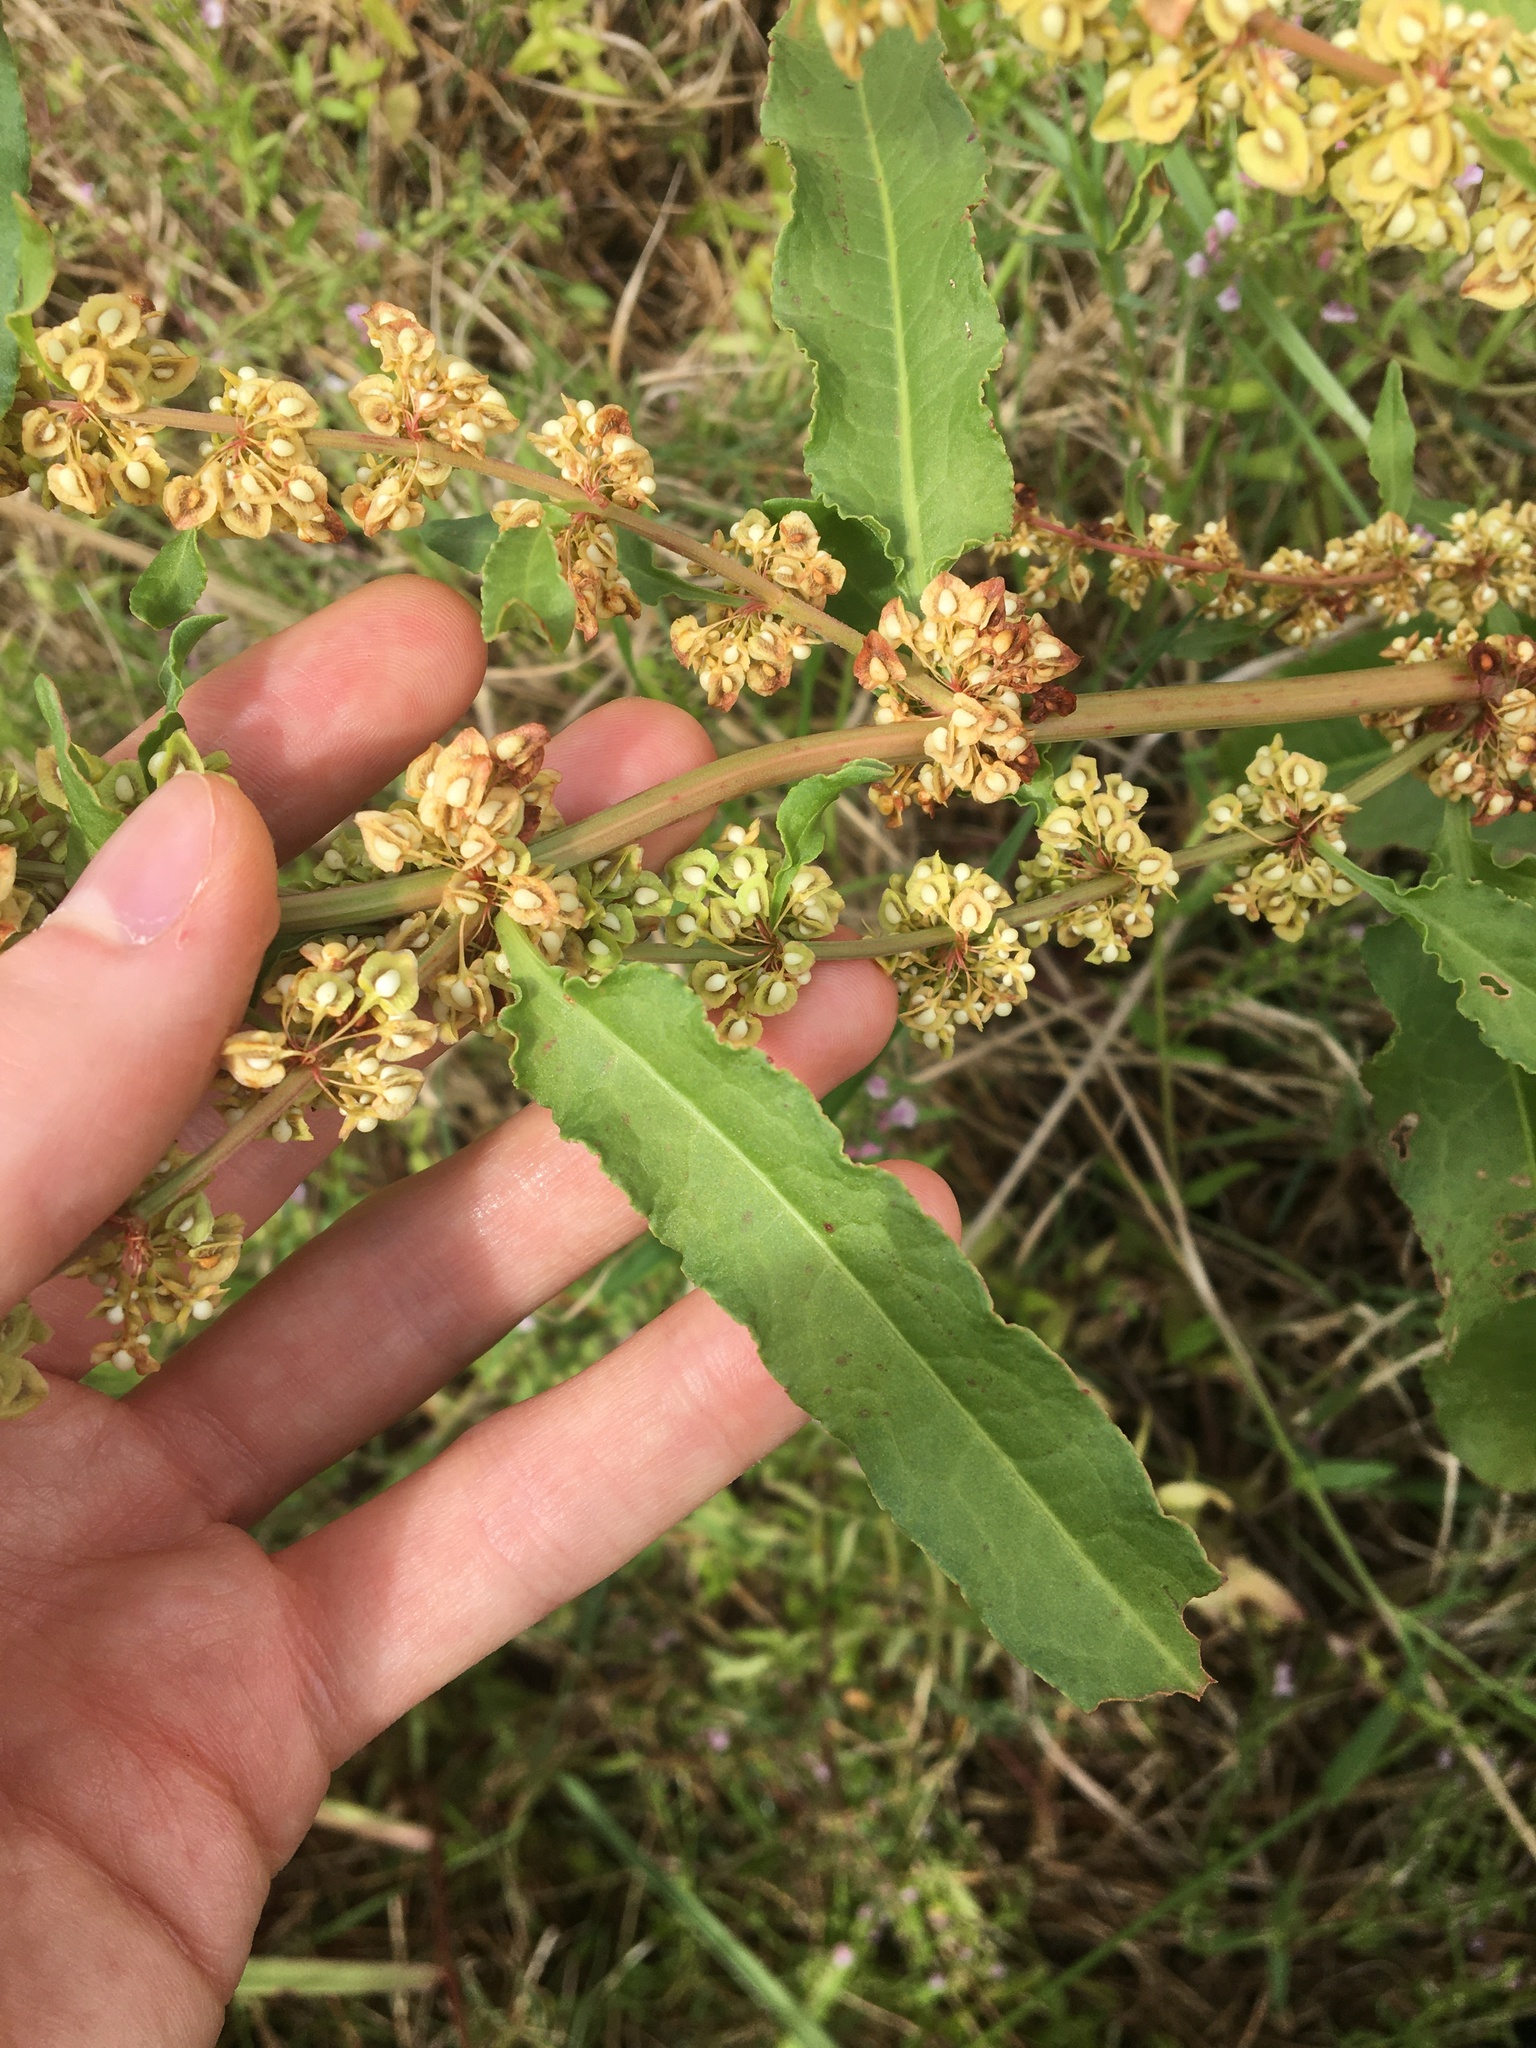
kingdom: Plantae
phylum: Tracheophyta
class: Magnoliopsida
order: Caryophyllales
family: Polygonaceae
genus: Rumex
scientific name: Rumex crispus
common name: Curled dock
